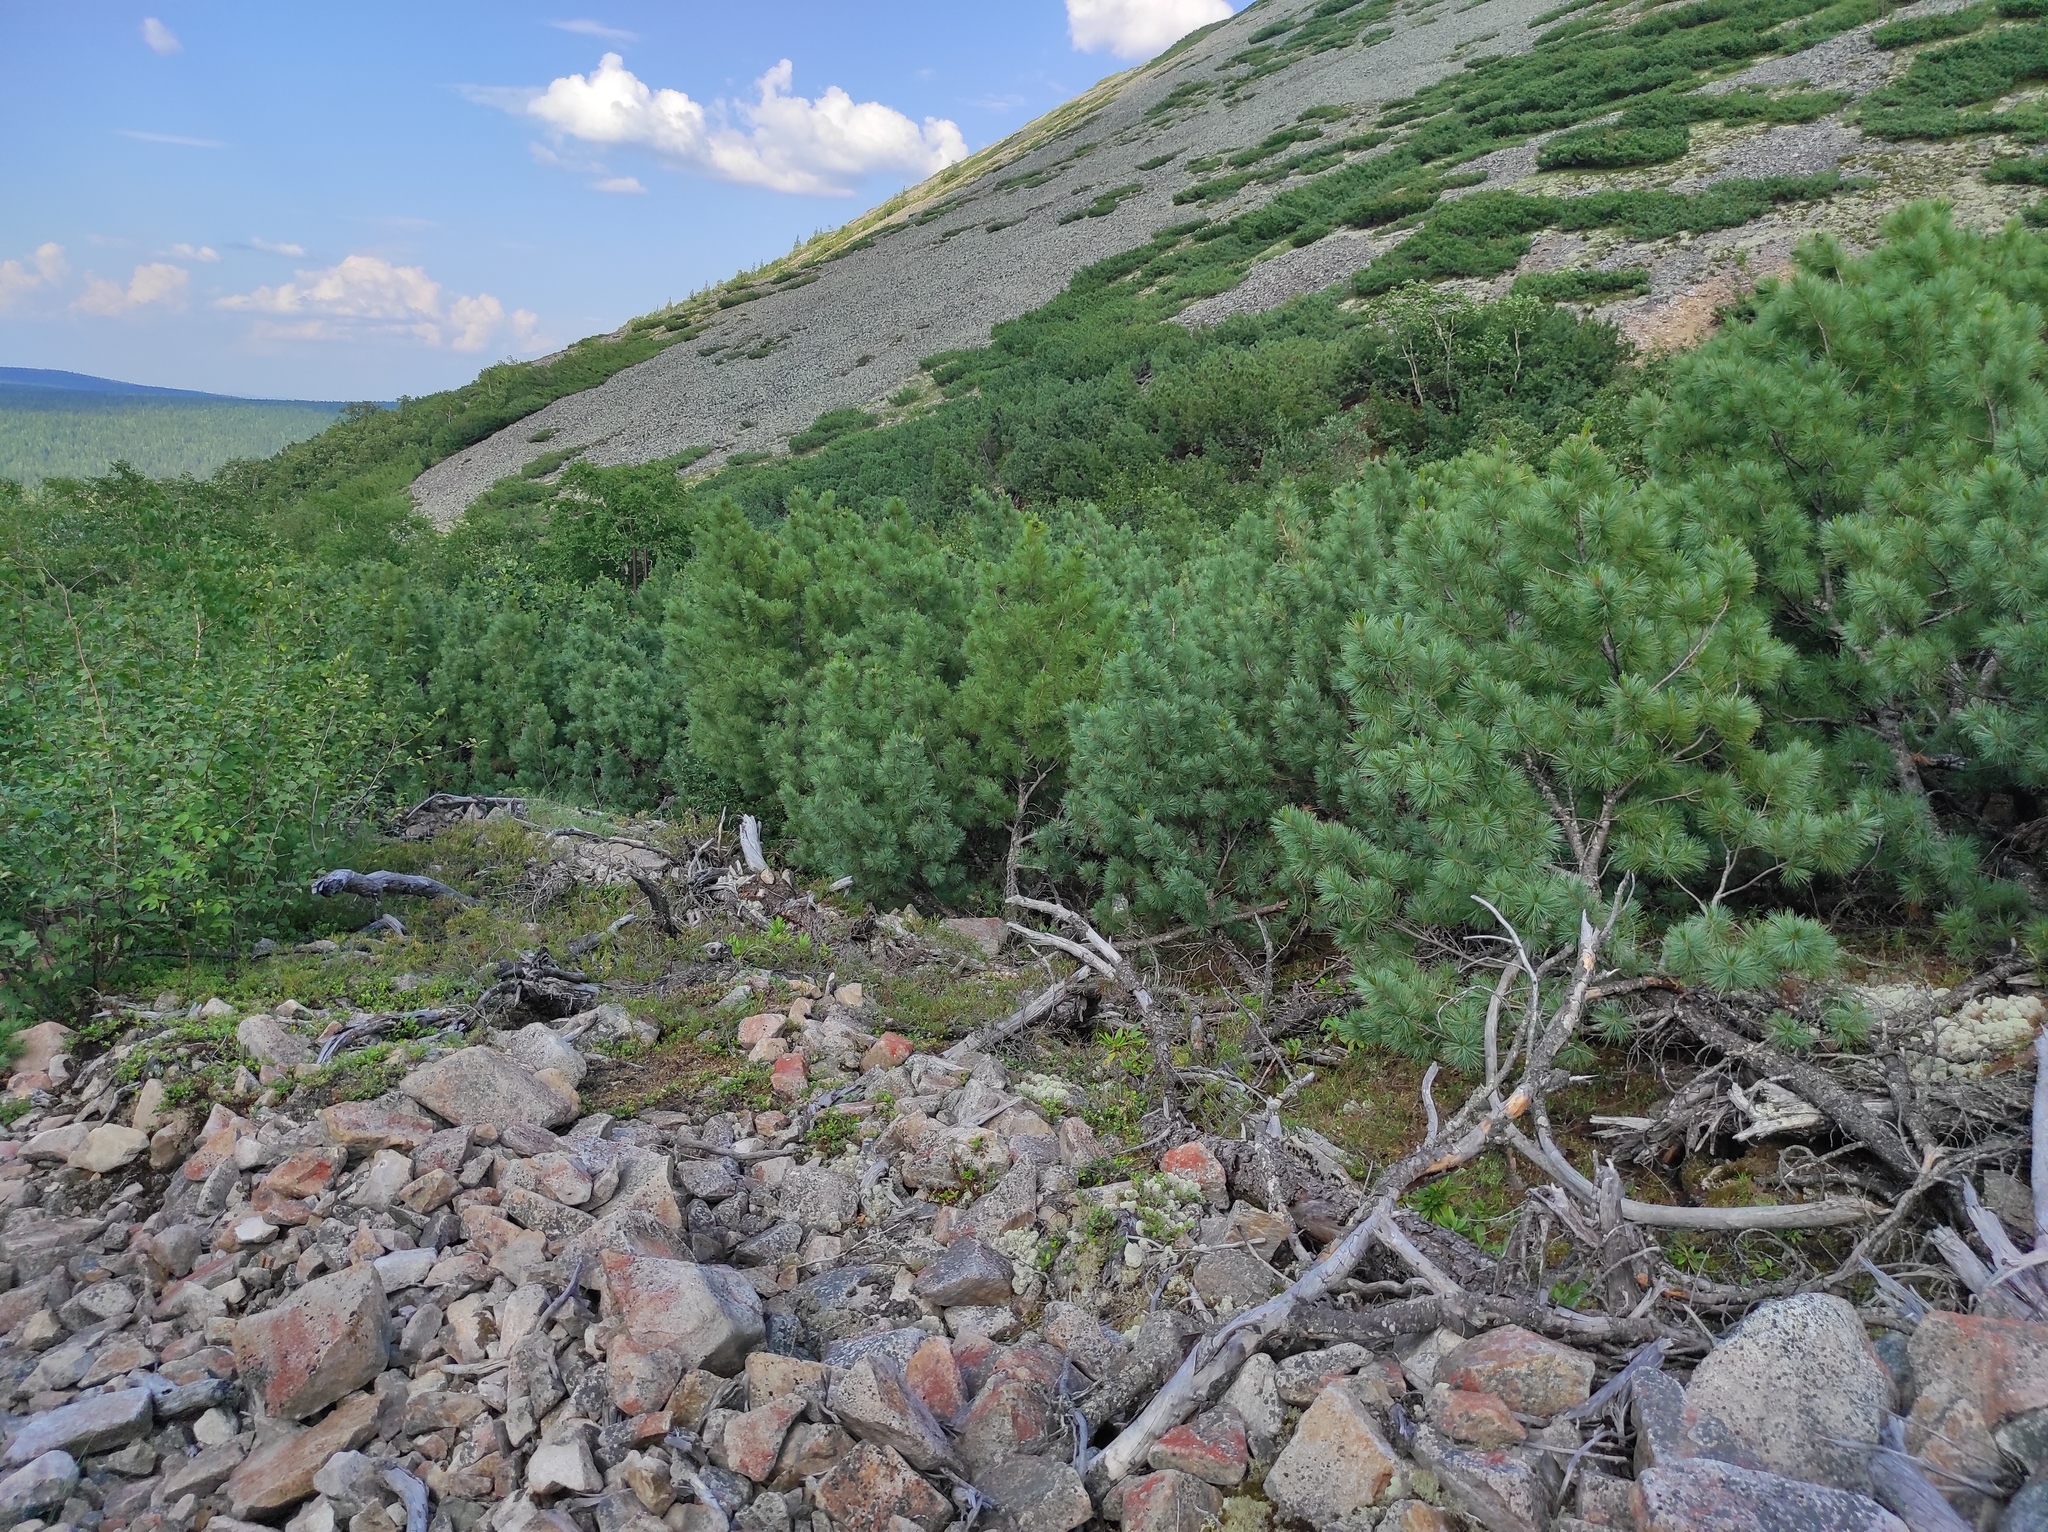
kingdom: Plantae
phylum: Tracheophyta
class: Pinopsida
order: Pinales
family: Pinaceae
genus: Pinus
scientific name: Pinus pumila
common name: Dwarf siberian pine
